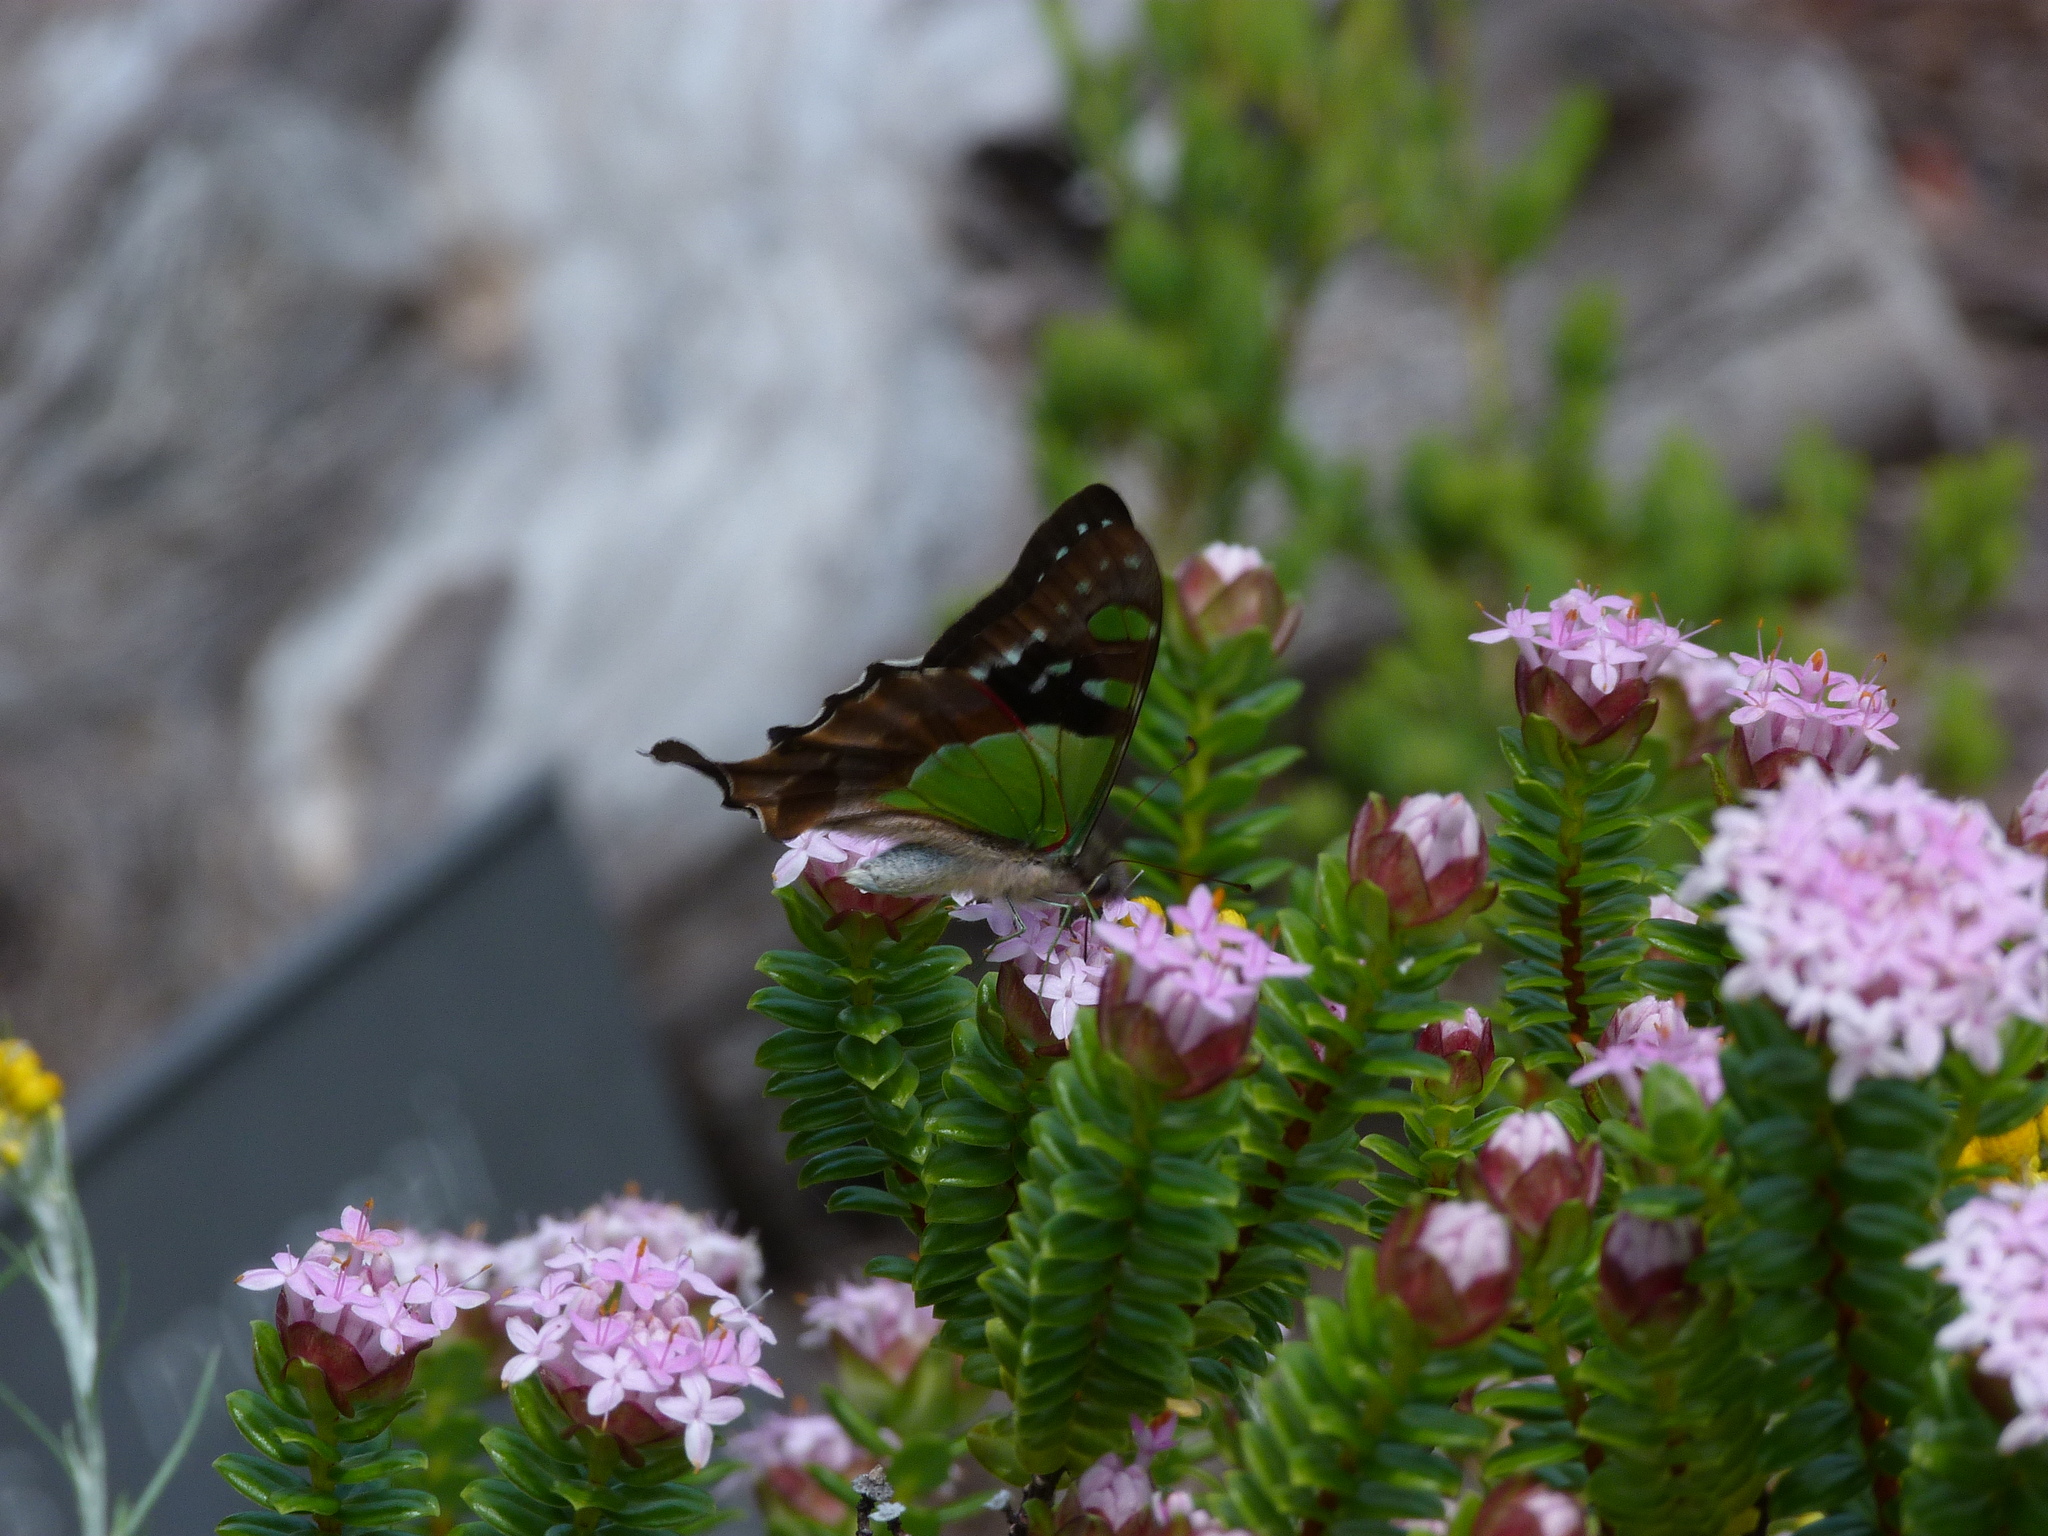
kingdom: Animalia
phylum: Arthropoda
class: Insecta
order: Lepidoptera
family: Papilionidae
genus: Graphium
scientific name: Graphium macleayanus
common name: Macleay's swallowtail
